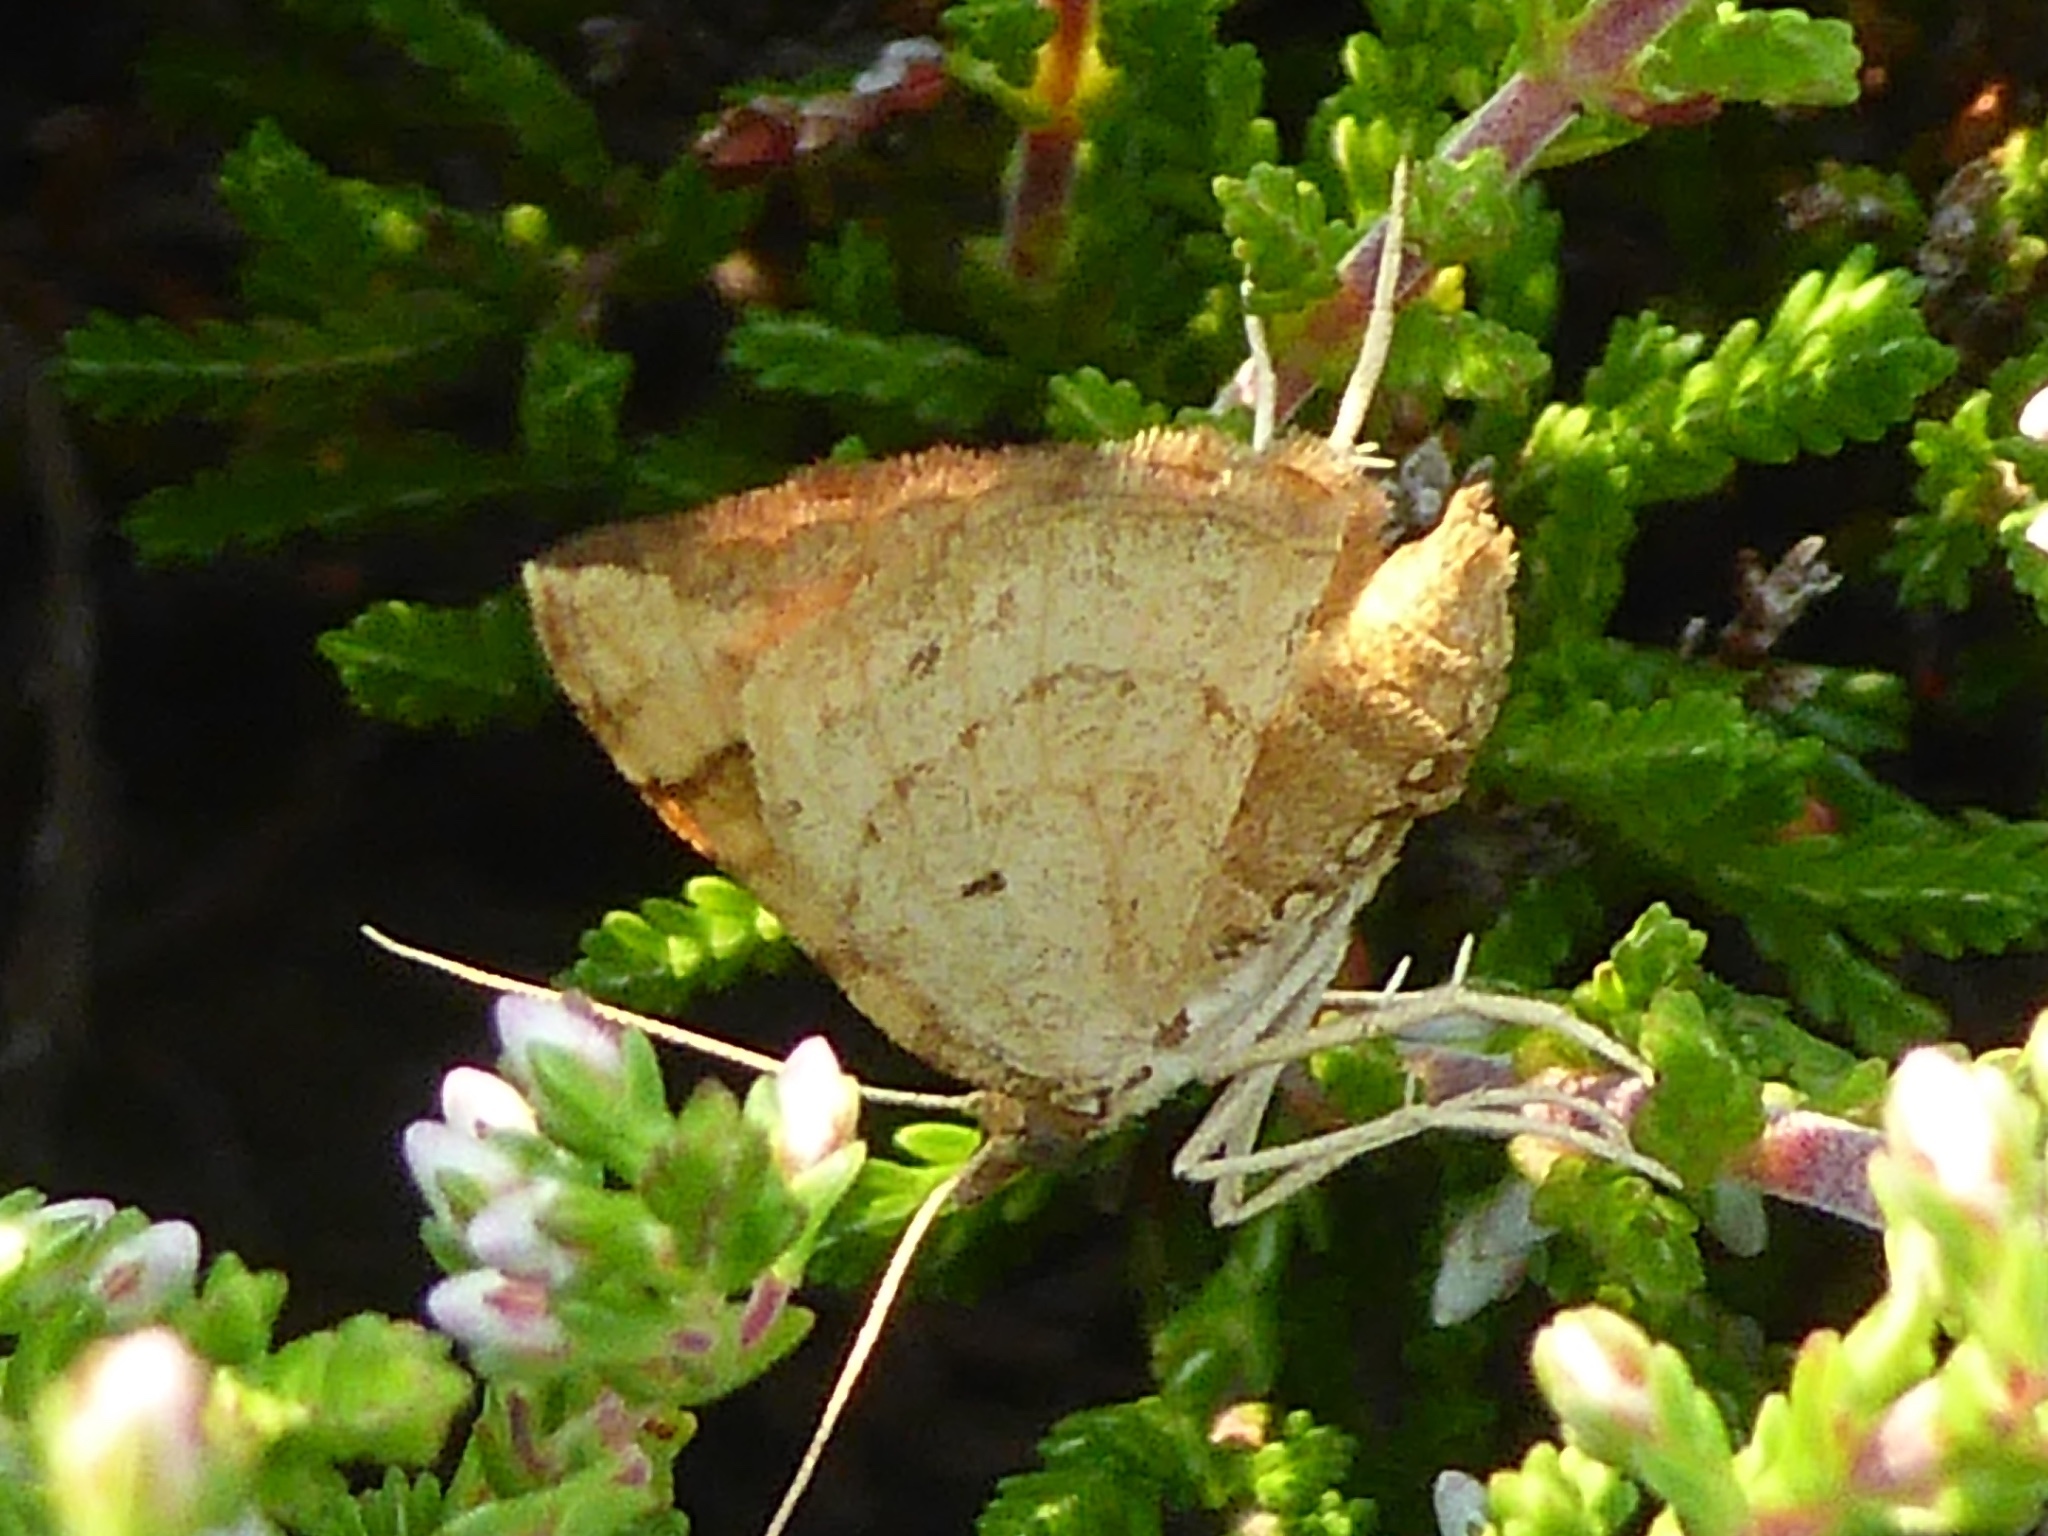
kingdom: Animalia
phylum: Arthropoda
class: Insecta
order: Lepidoptera
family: Geometridae
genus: Eulithis
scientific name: Eulithis populata
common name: Northern spinach
